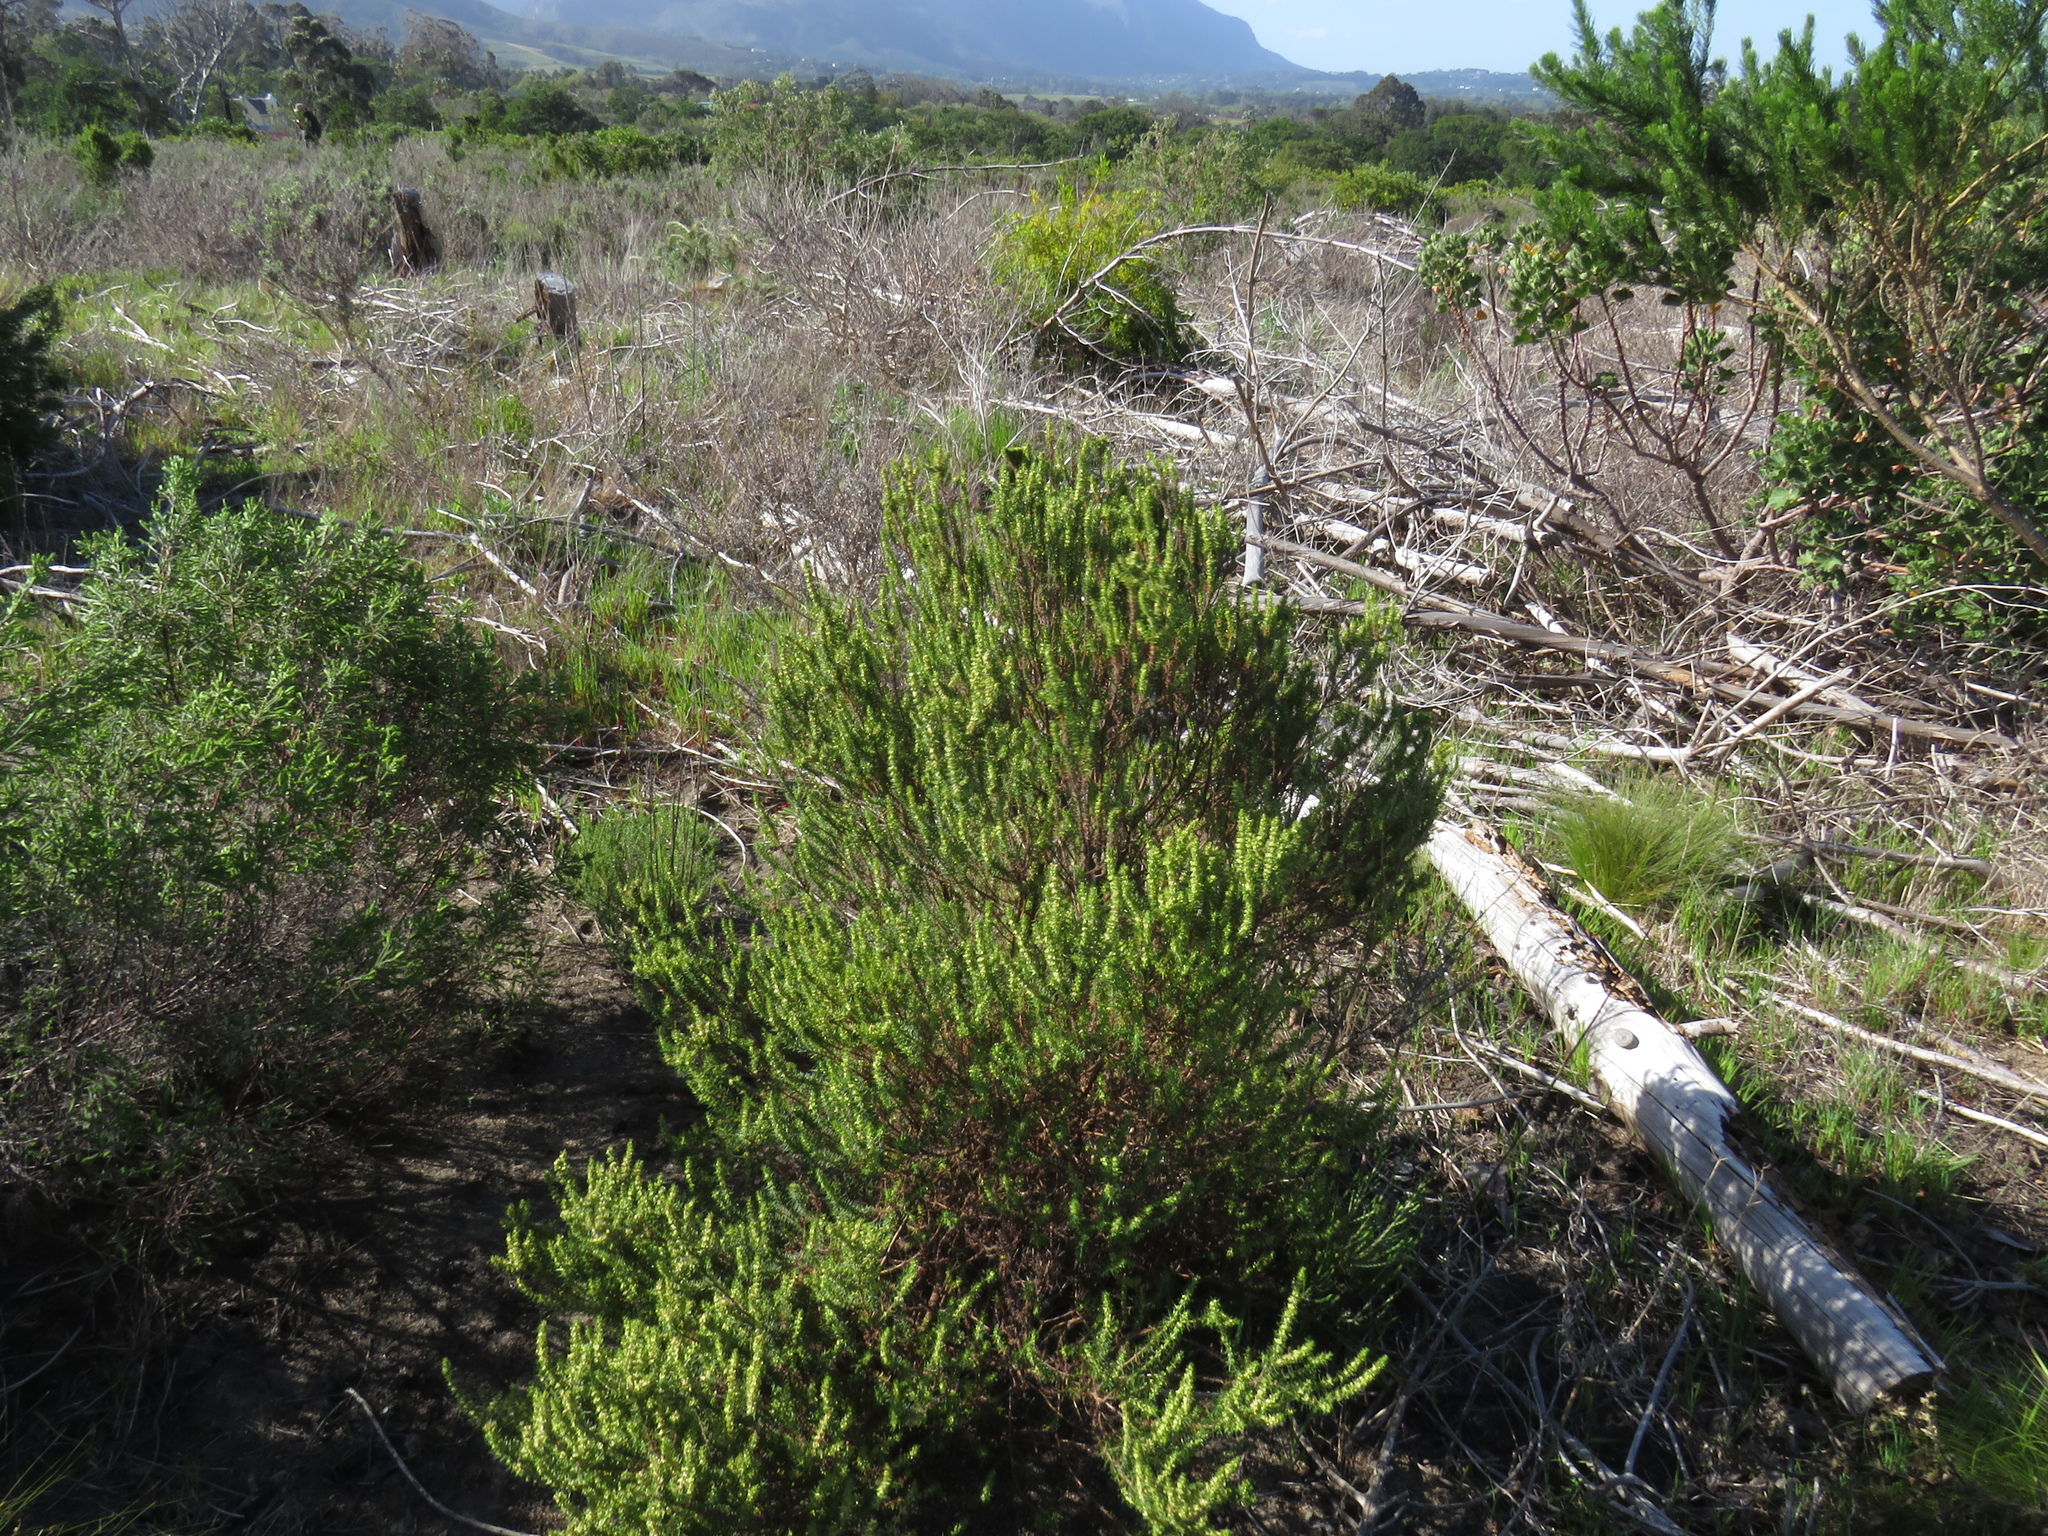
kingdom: Plantae
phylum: Tracheophyta
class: Magnoliopsida
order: Gentianales
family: Rubiaceae
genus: Anthospermum
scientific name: Anthospermum aethiopicum
